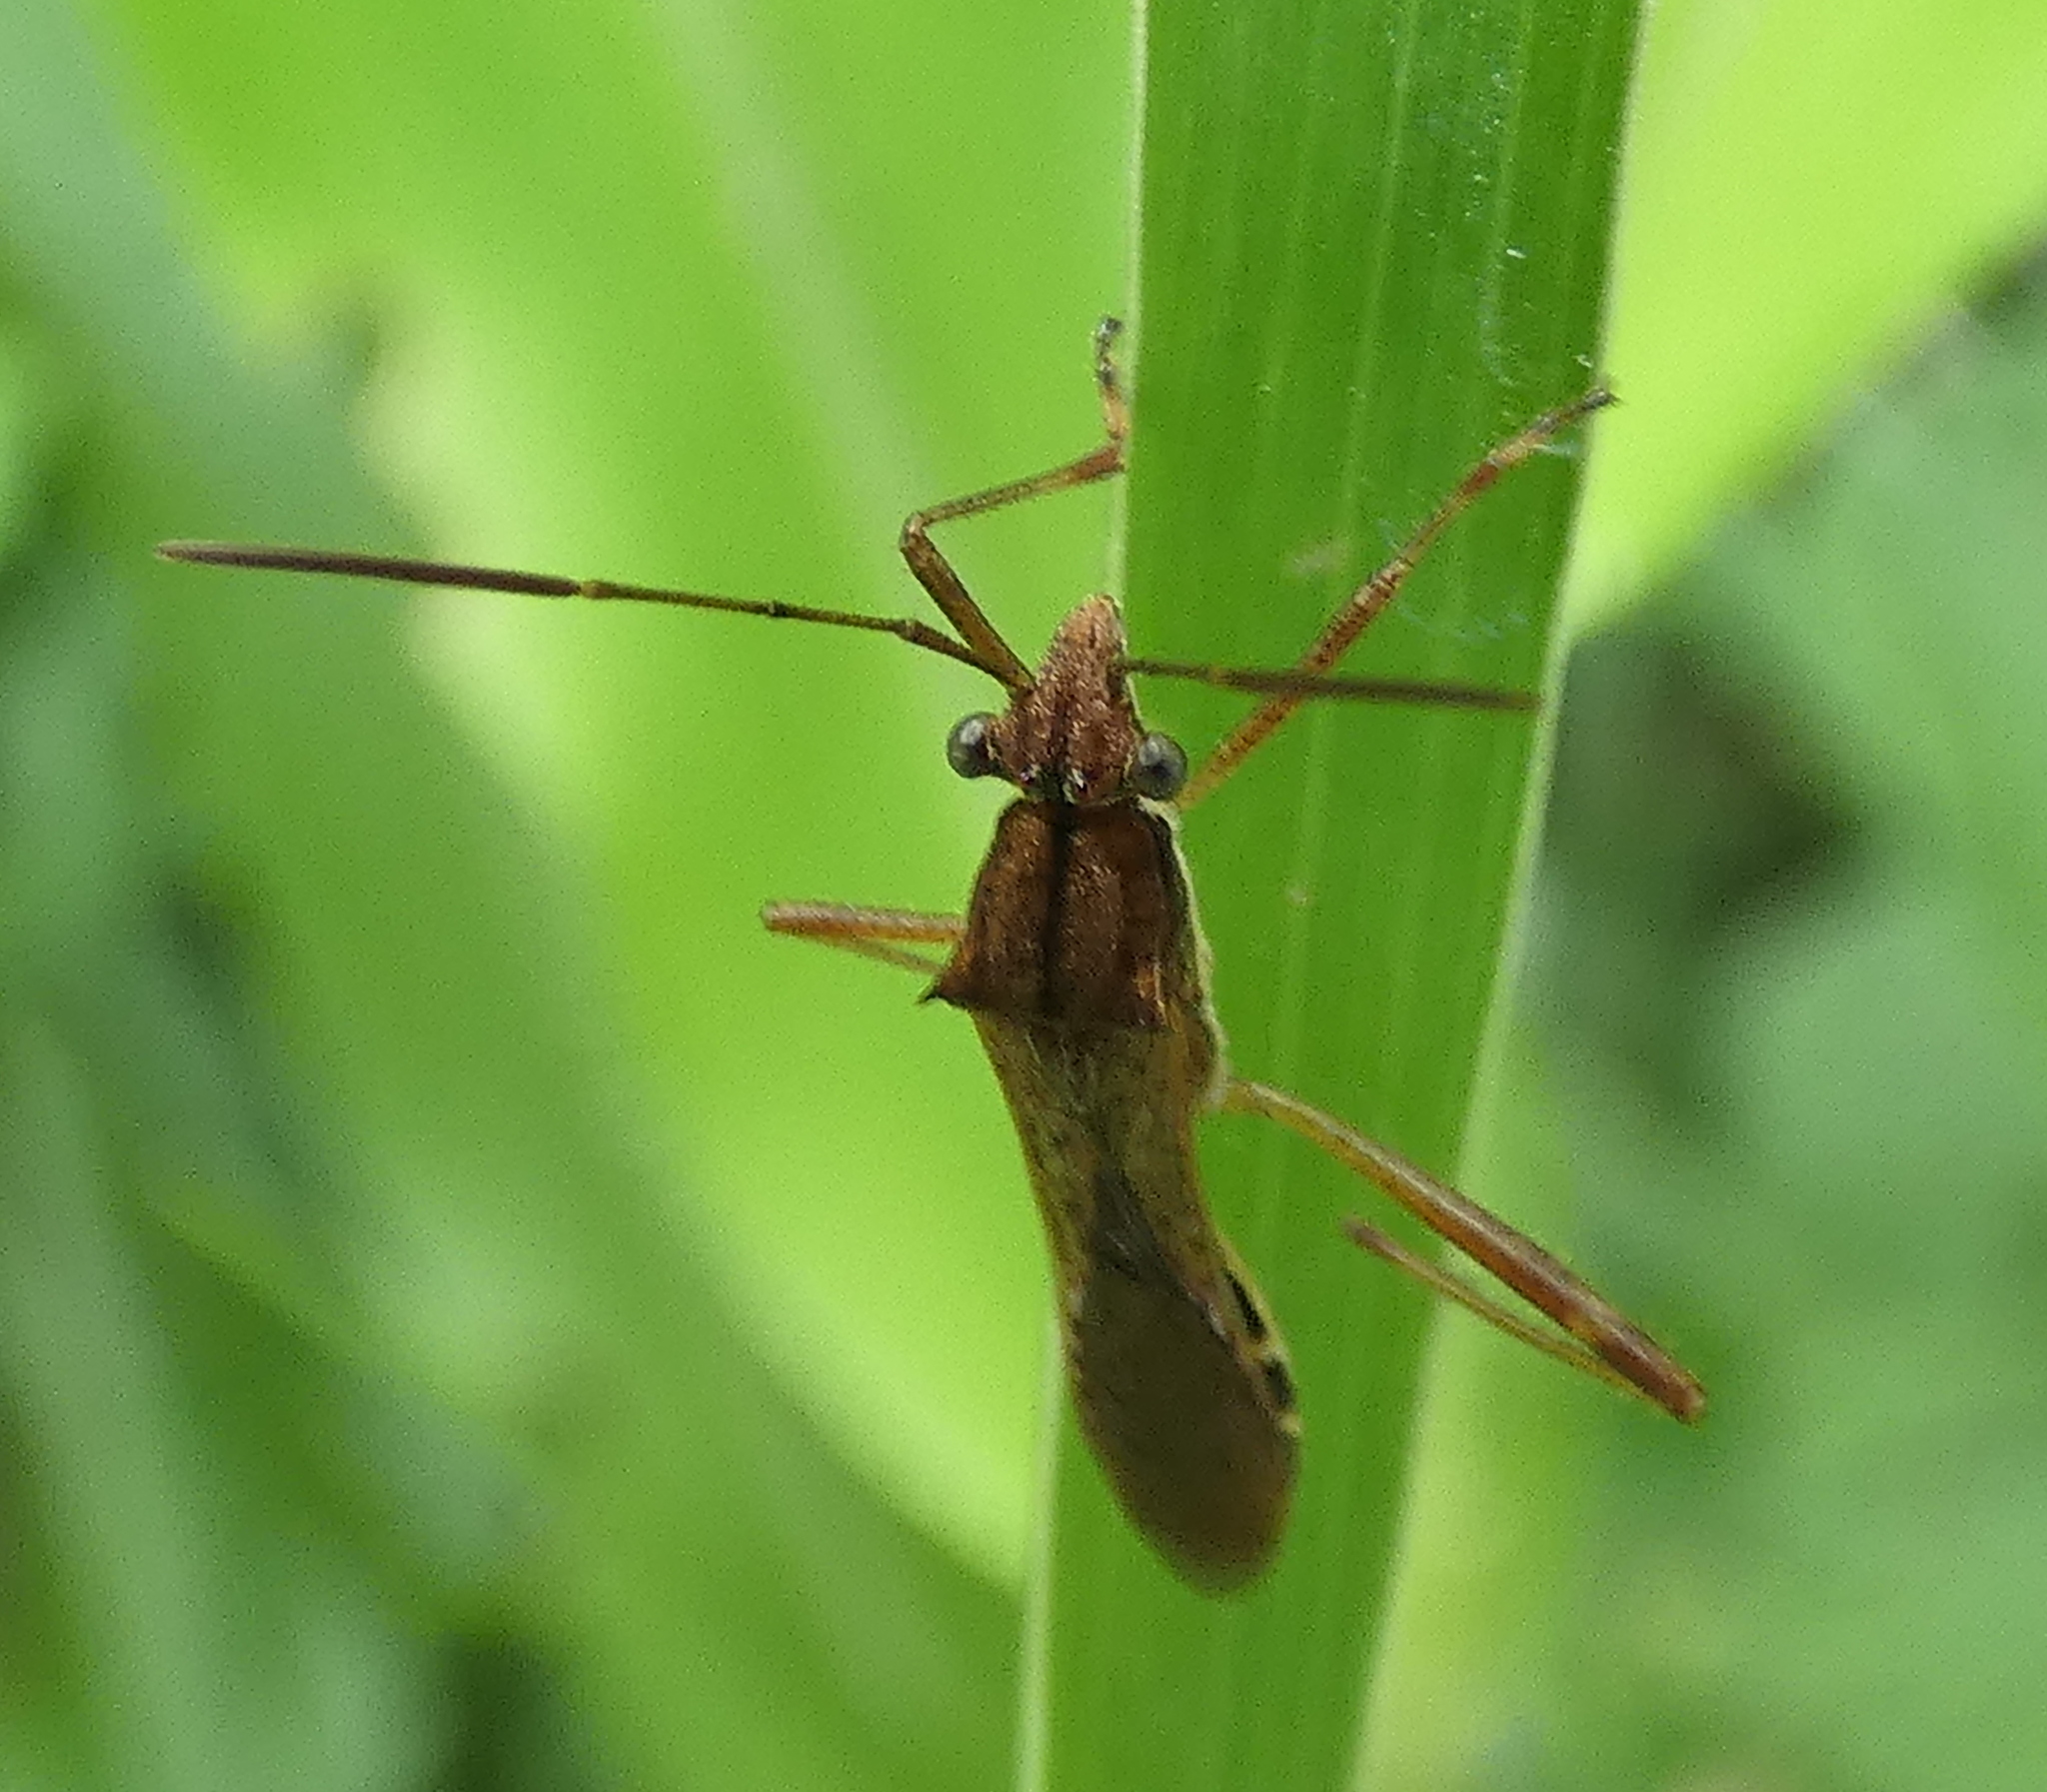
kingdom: Animalia
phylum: Arthropoda
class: Insecta
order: Hemiptera
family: Alydidae
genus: Neomegalotomus
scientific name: Neomegalotomus parvus
